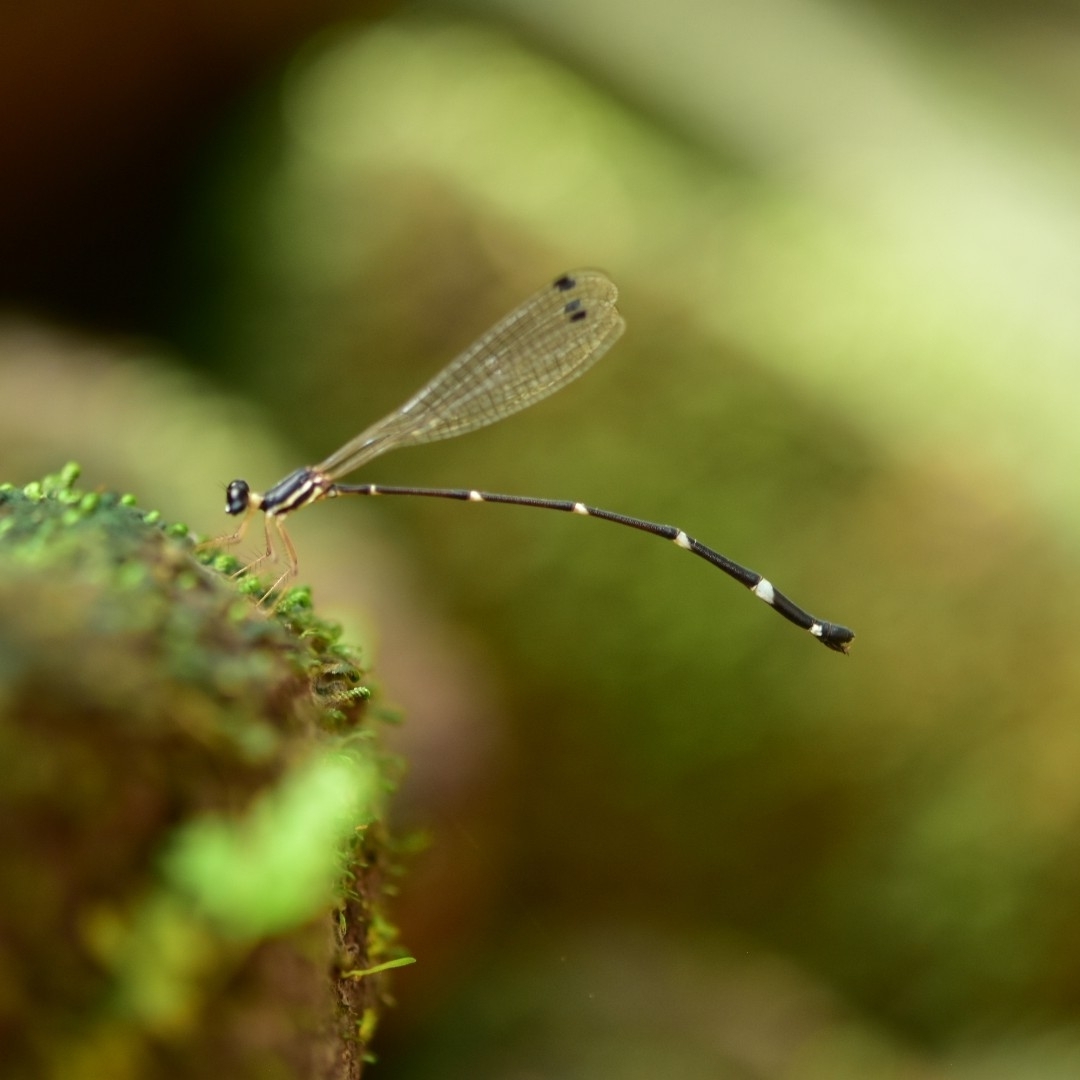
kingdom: Animalia
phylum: Arthropoda
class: Insecta
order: Odonata
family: Platystictidae
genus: Protosticta
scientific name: Protosticta gravelyi
